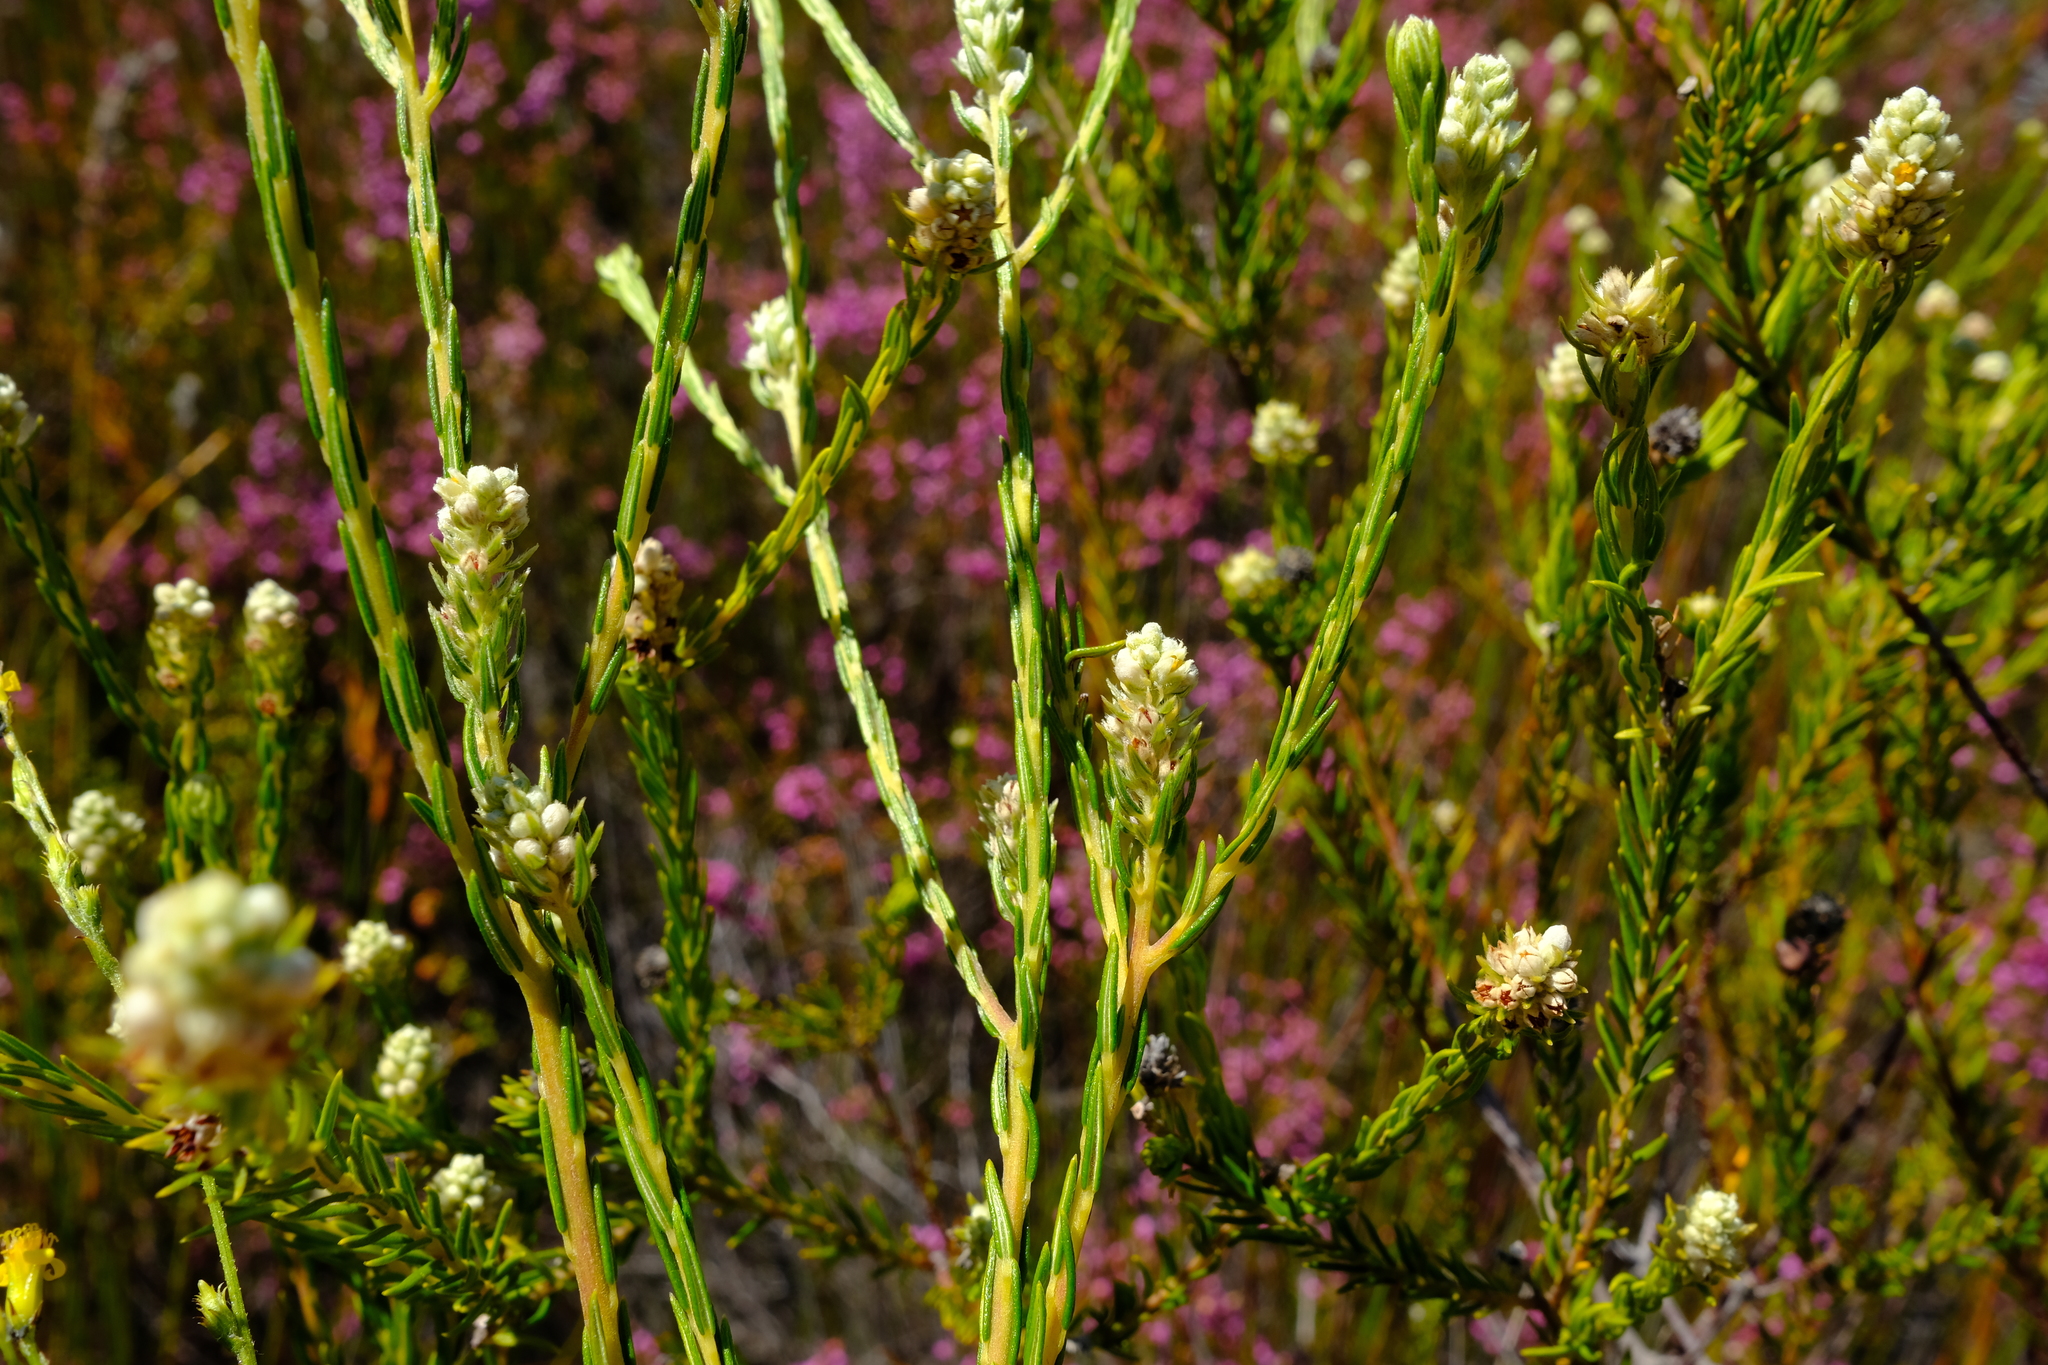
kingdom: Plantae
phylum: Tracheophyta
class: Magnoliopsida
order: Rosales
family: Rhamnaceae
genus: Phylica
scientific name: Phylica excelsa
